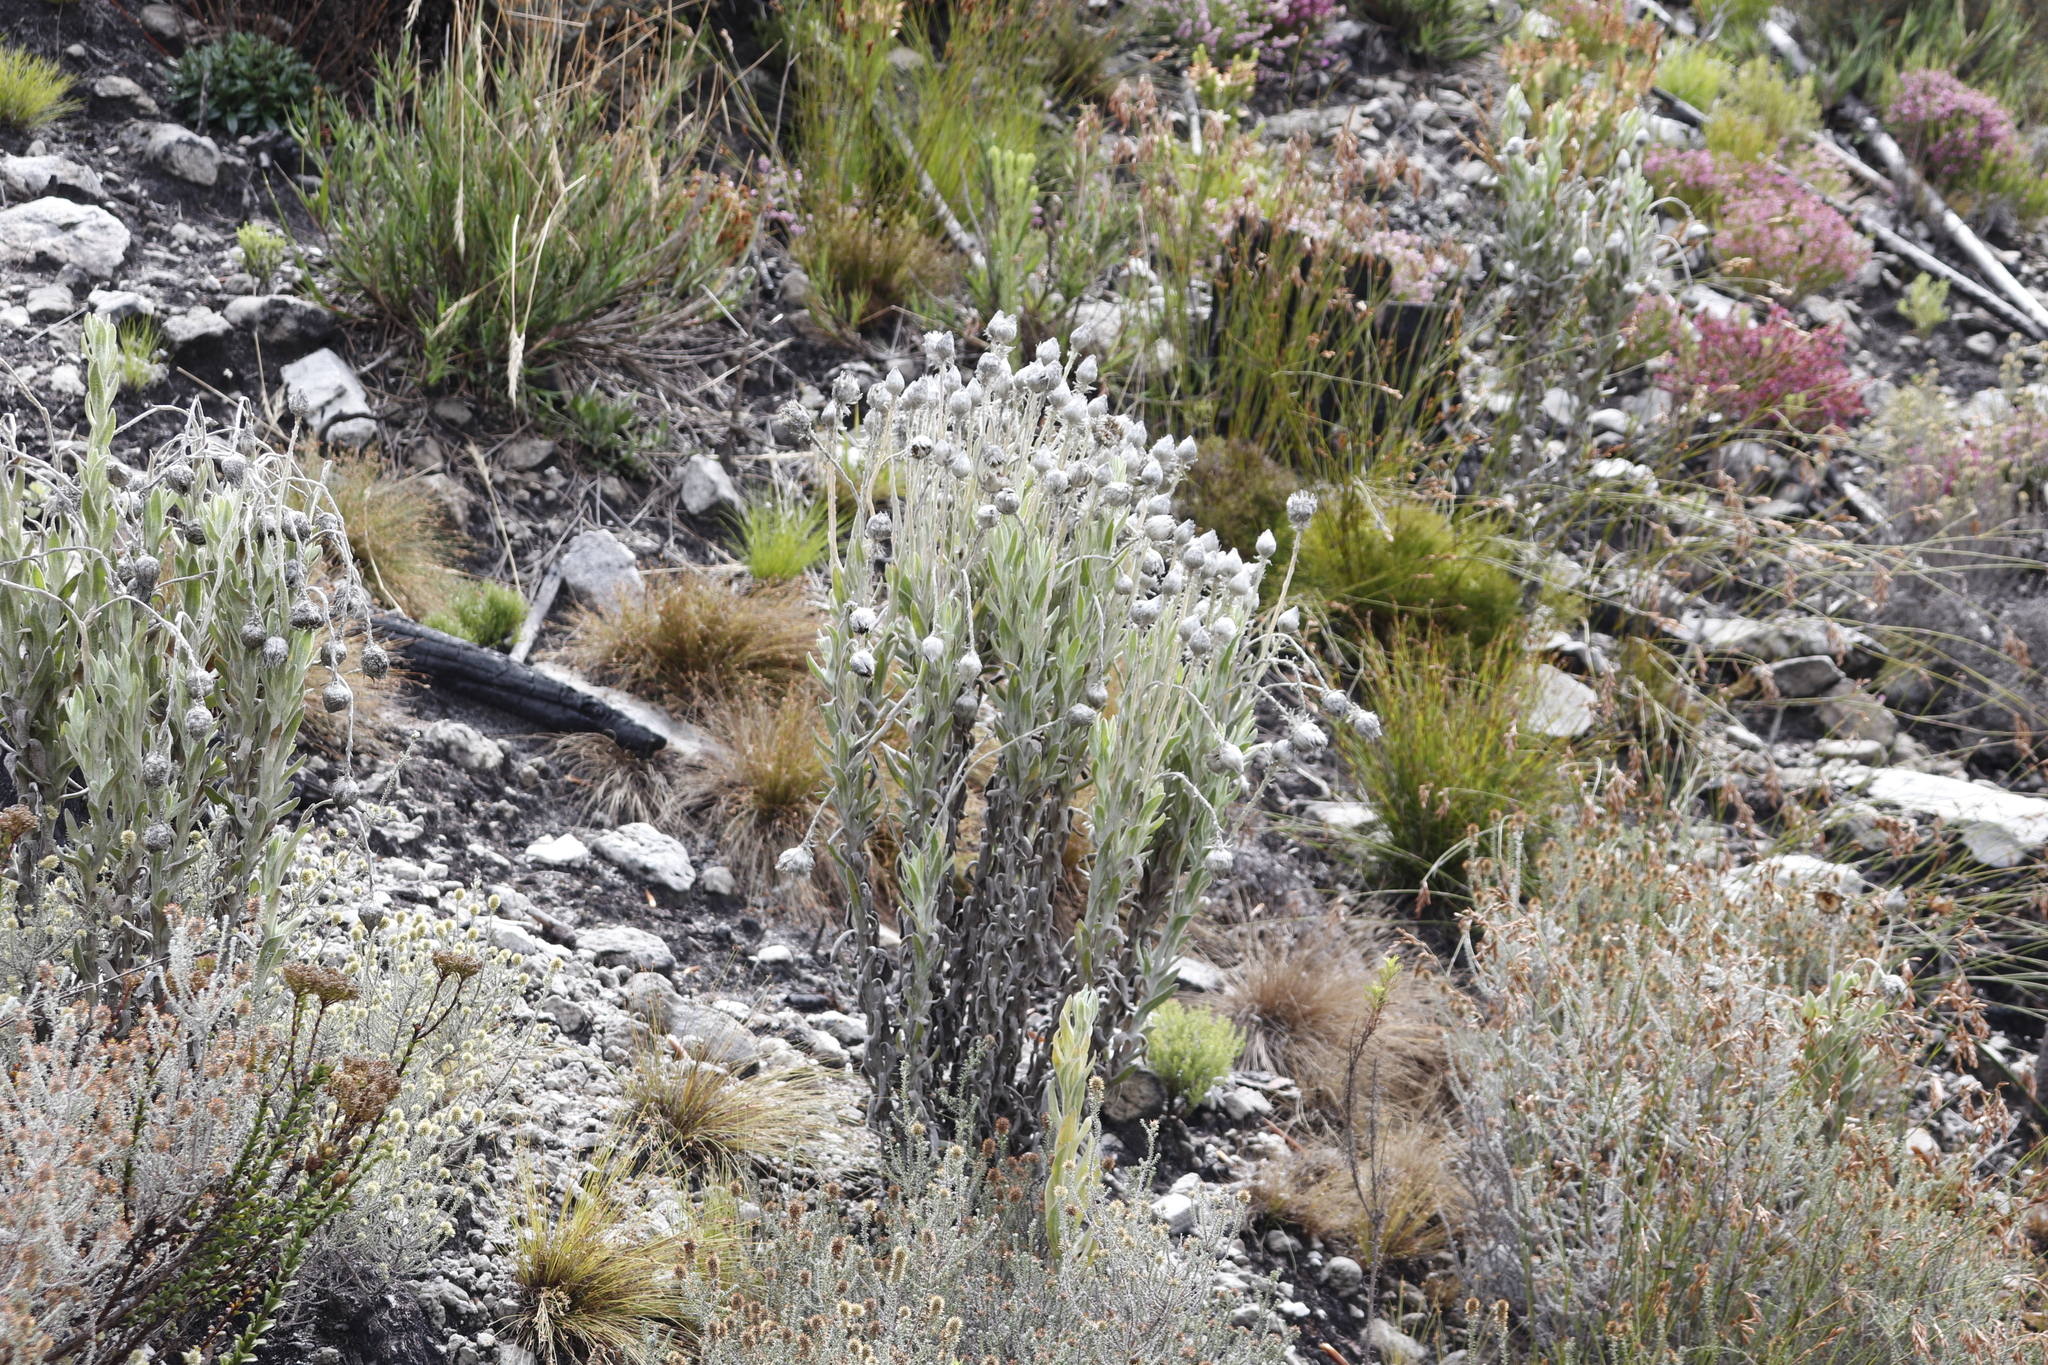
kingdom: Plantae
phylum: Tracheophyta
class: Magnoliopsida
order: Asterales
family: Asteraceae
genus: Syncarpha
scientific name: Syncarpha vestita
